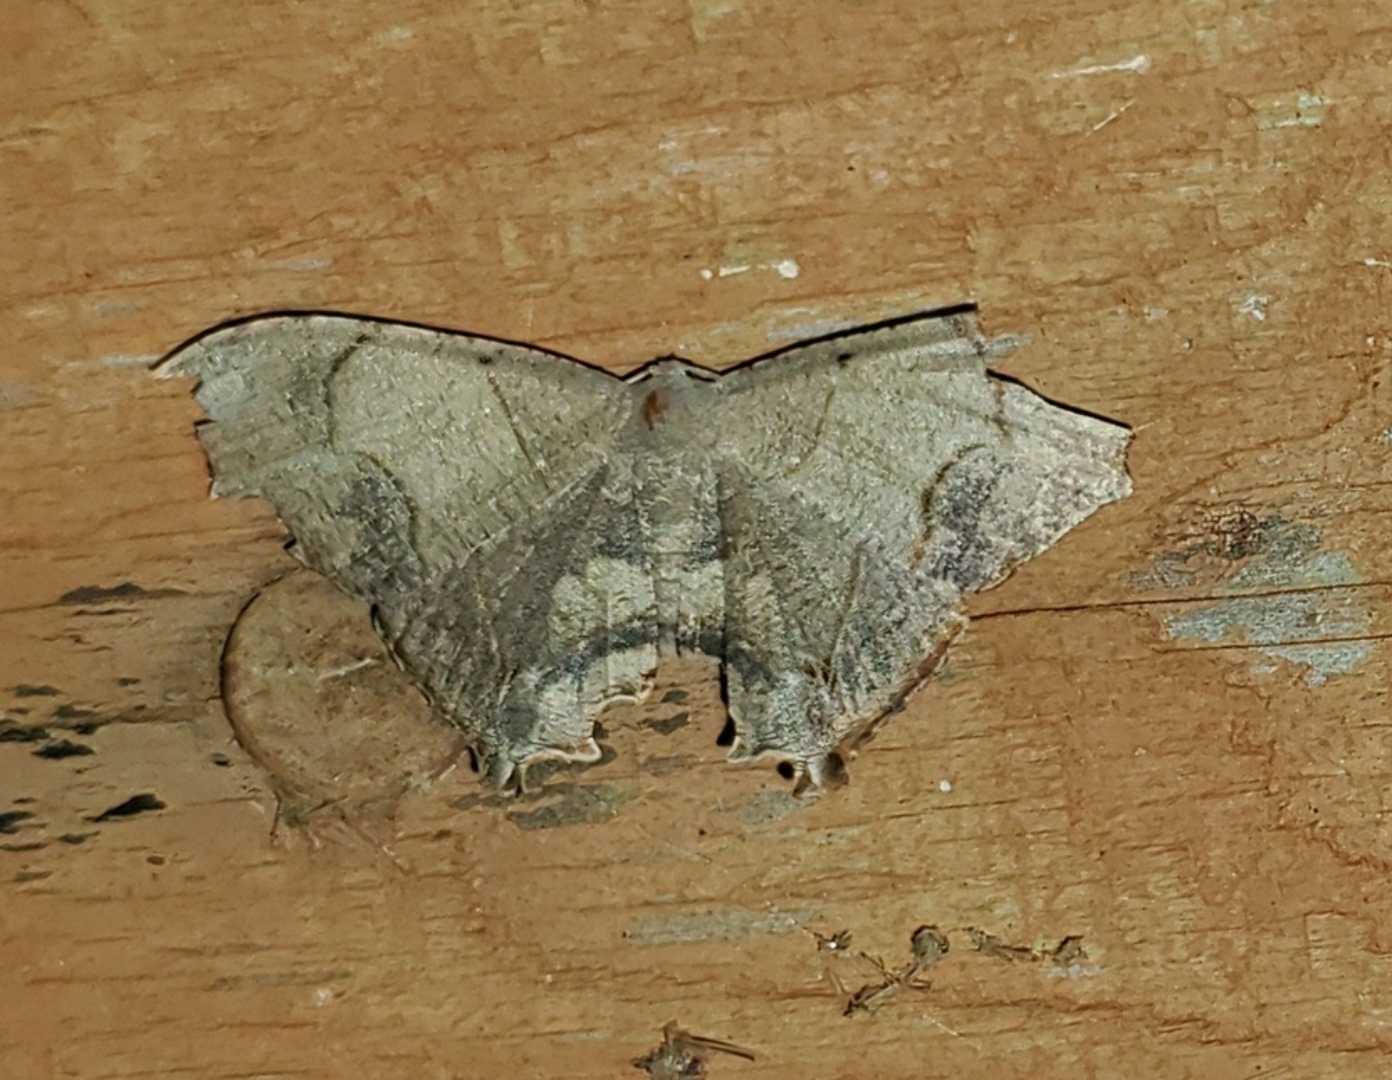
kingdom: Animalia
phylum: Arthropoda
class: Insecta
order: Lepidoptera
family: Uraniidae
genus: Trotorhombia
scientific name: Trotorhombia metachromata
